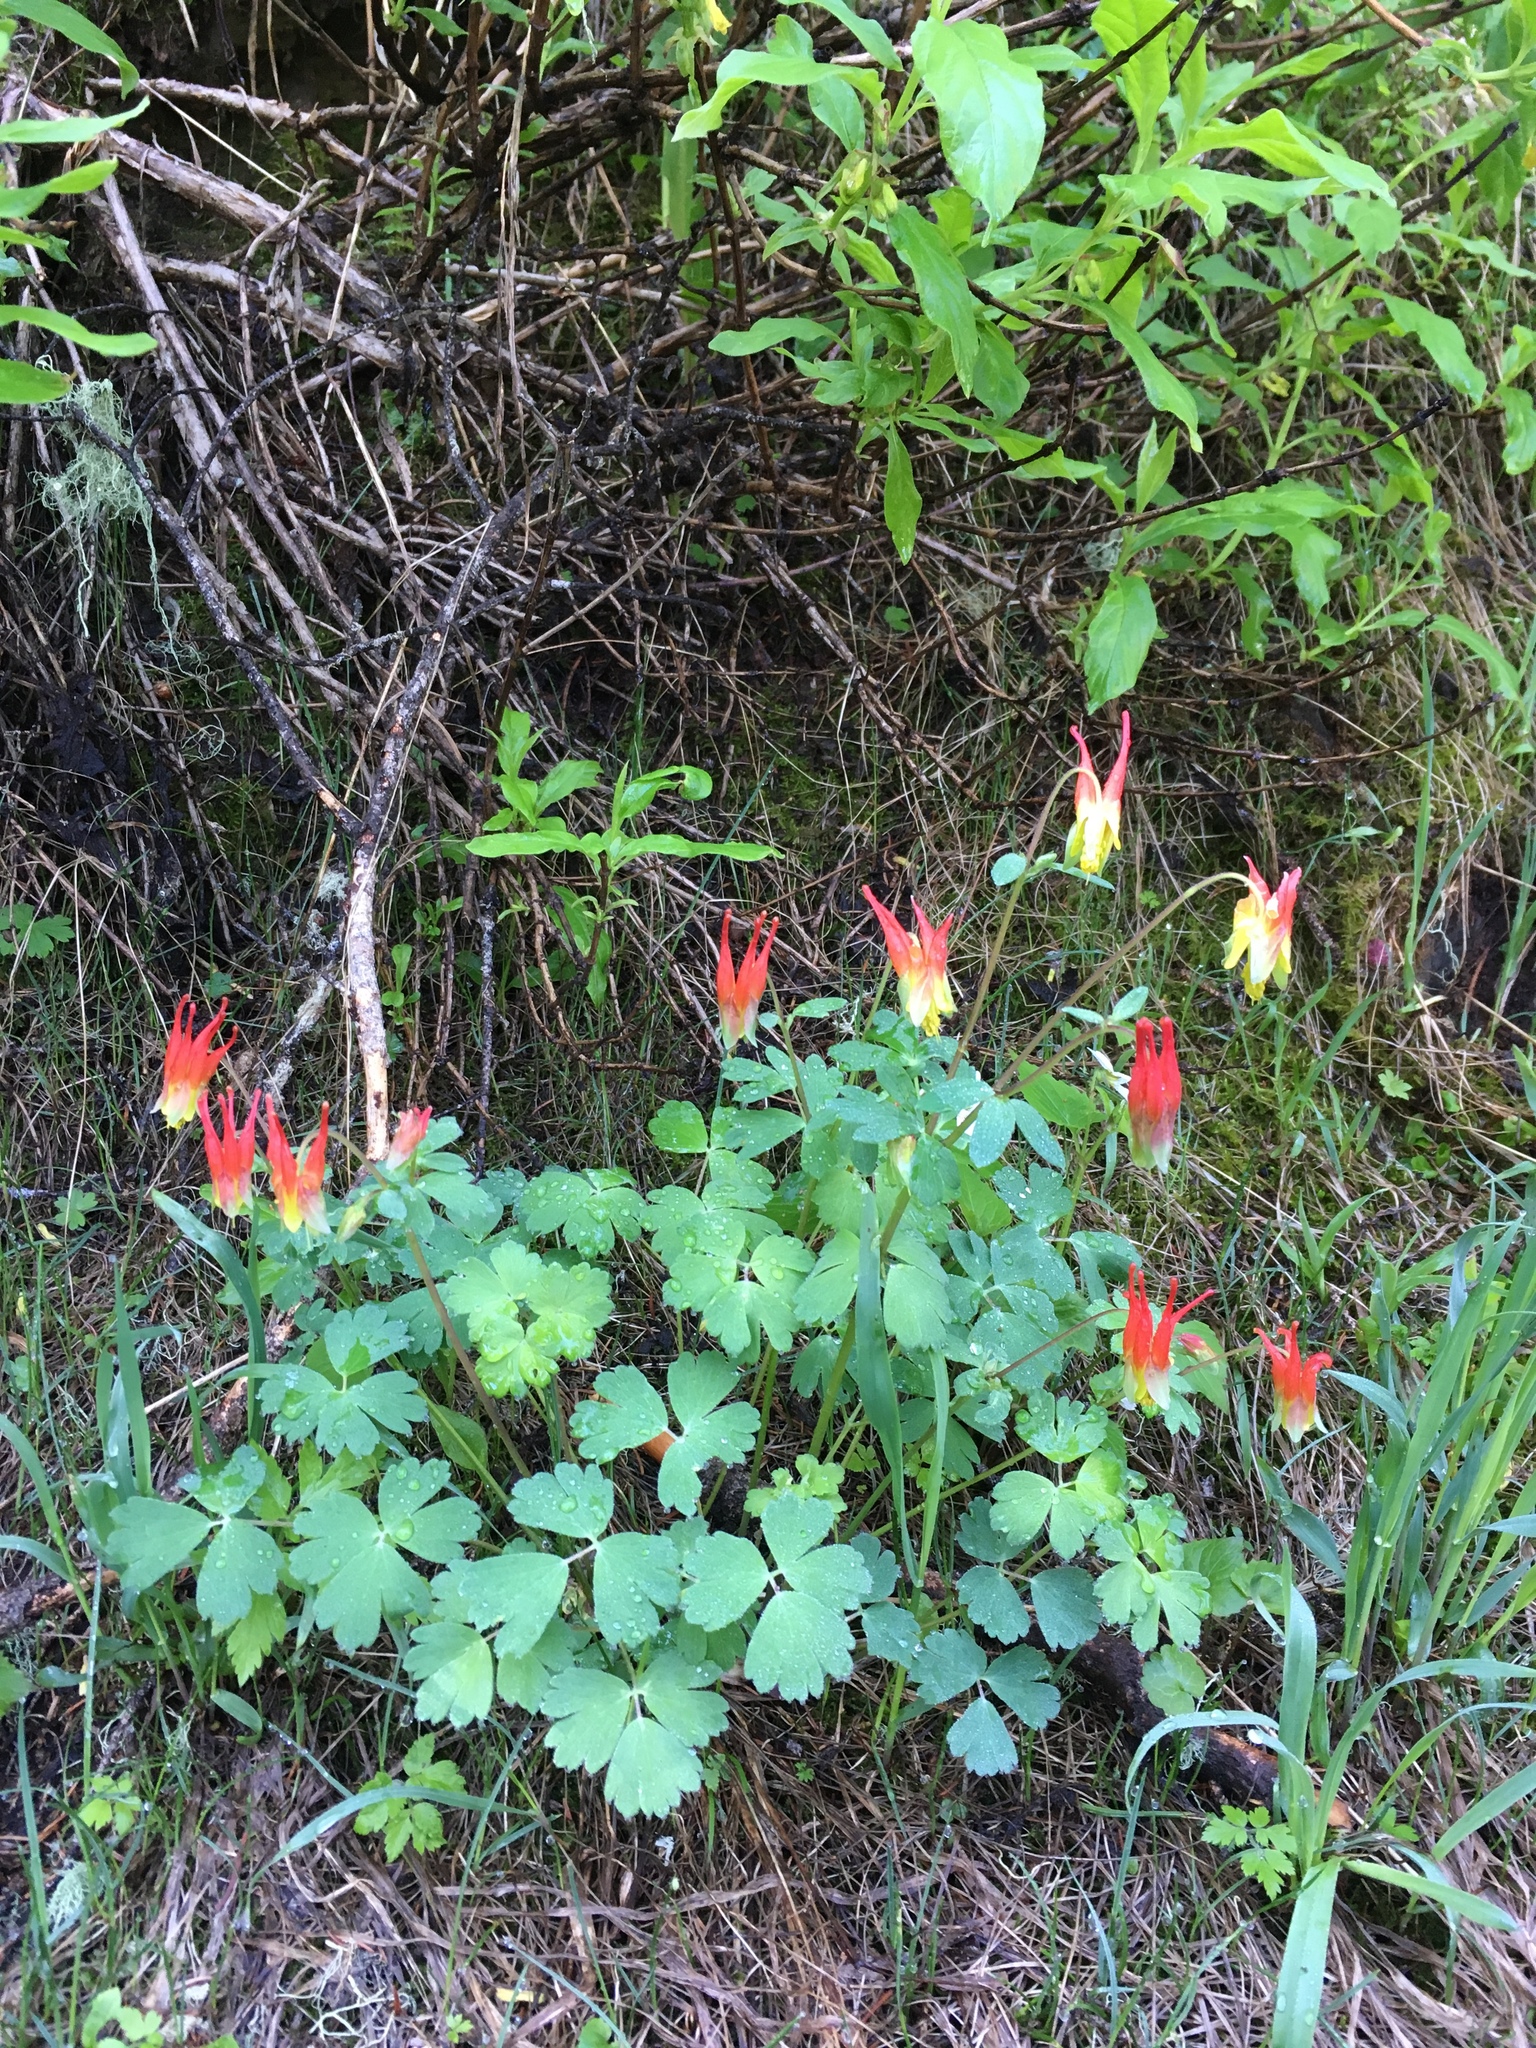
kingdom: Plantae
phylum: Tracheophyta
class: Magnoliopsida
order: Ranunculales
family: Ranunculaceae
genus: Aquilegia
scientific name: Aquilegia elegantula
